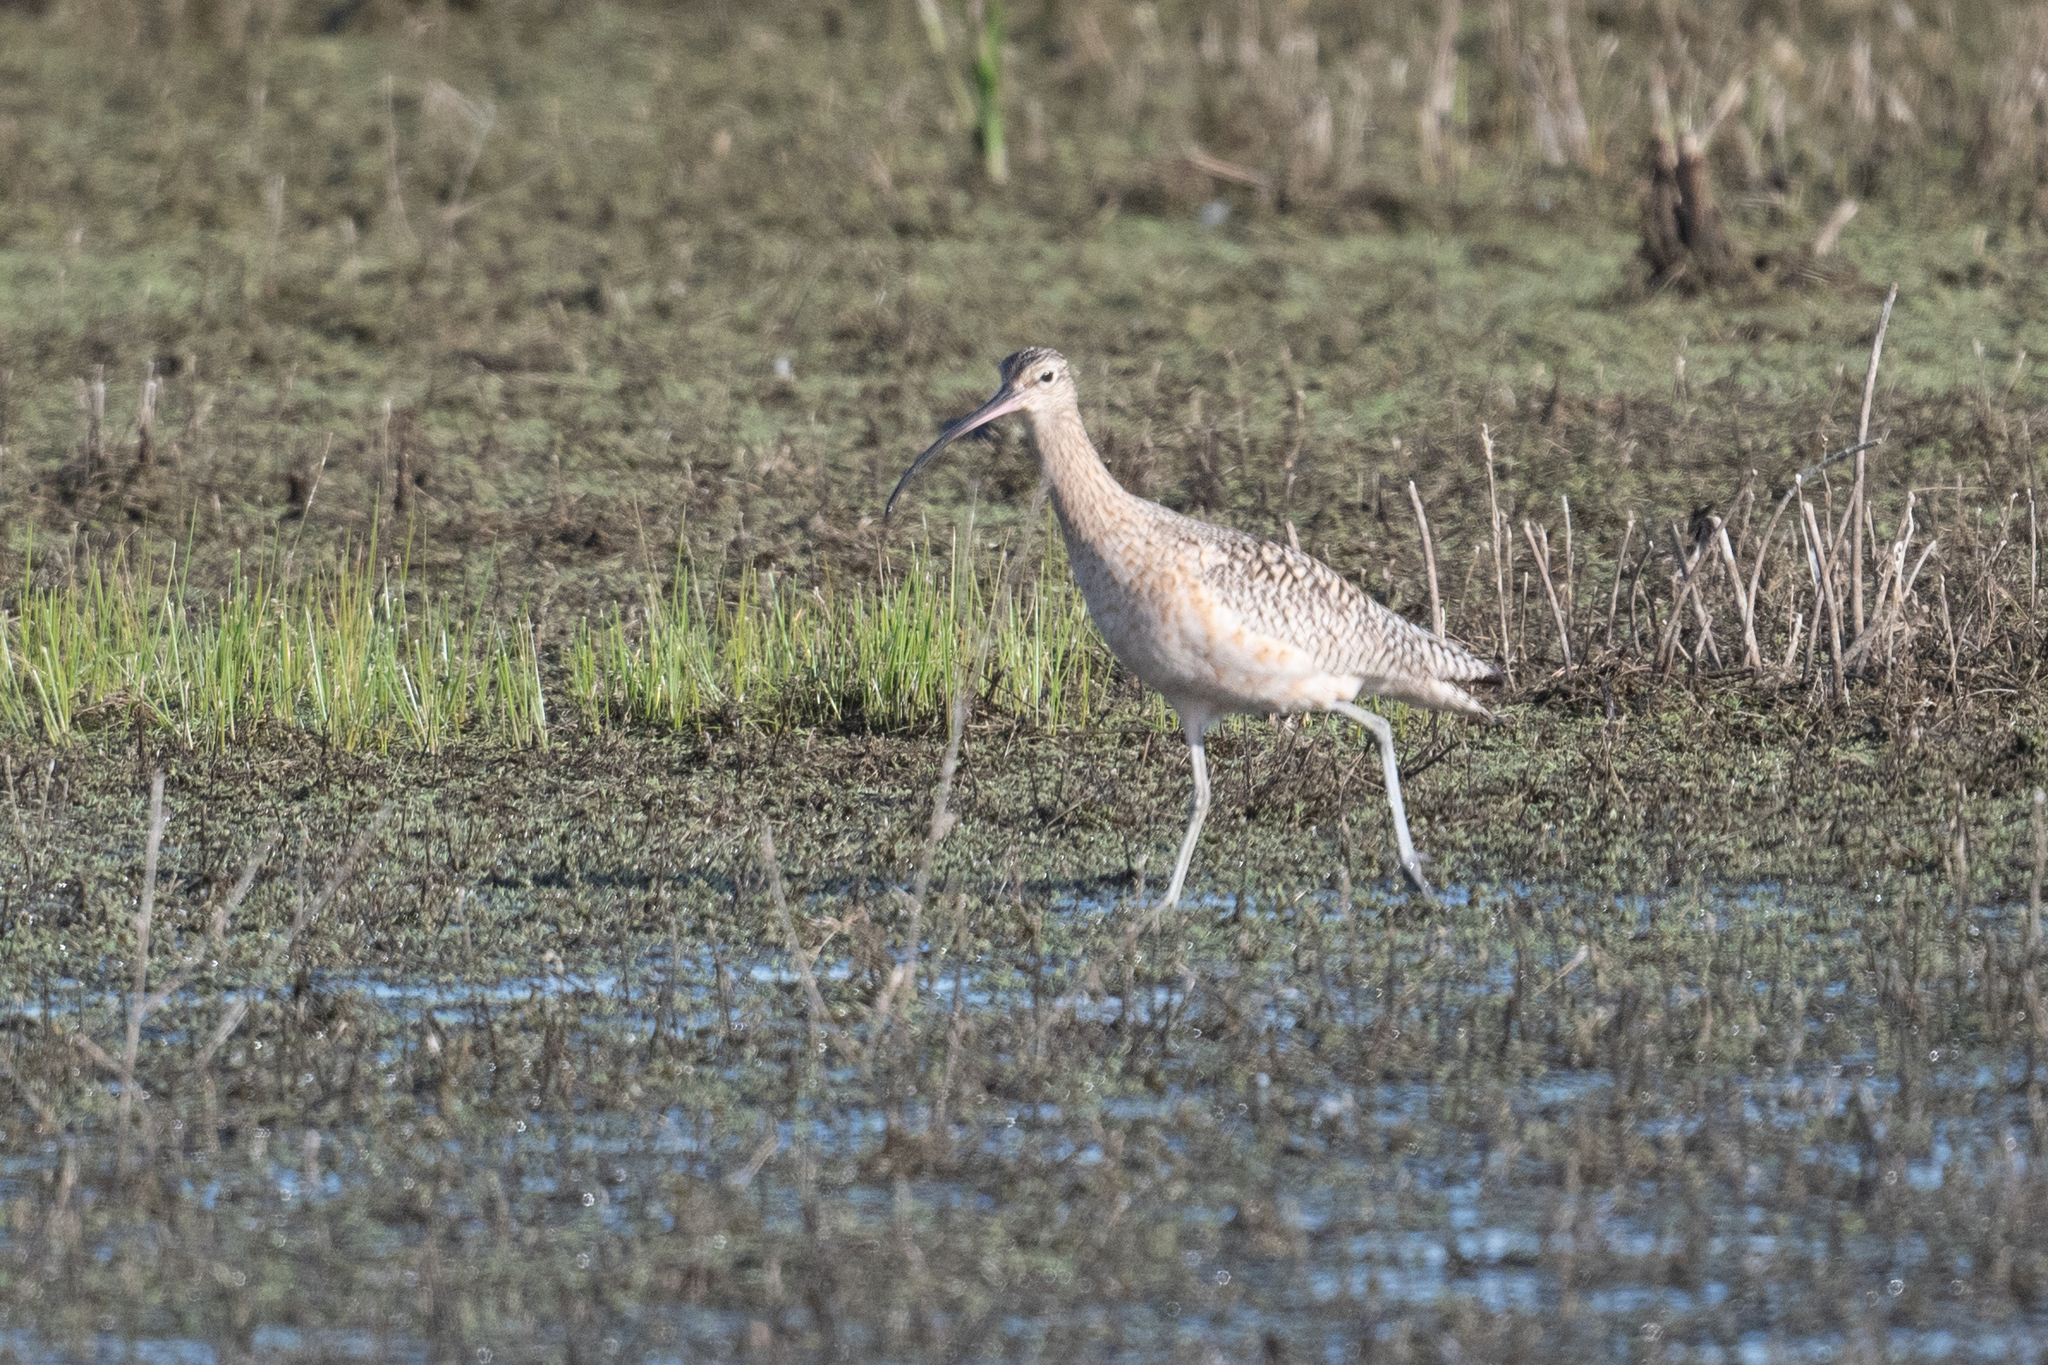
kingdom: Animalia
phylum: Chordata
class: Aves
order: Charadriiformes
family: Scolopacidae
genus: Numenius
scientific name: Numenius americanus
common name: Long-billed curlew
